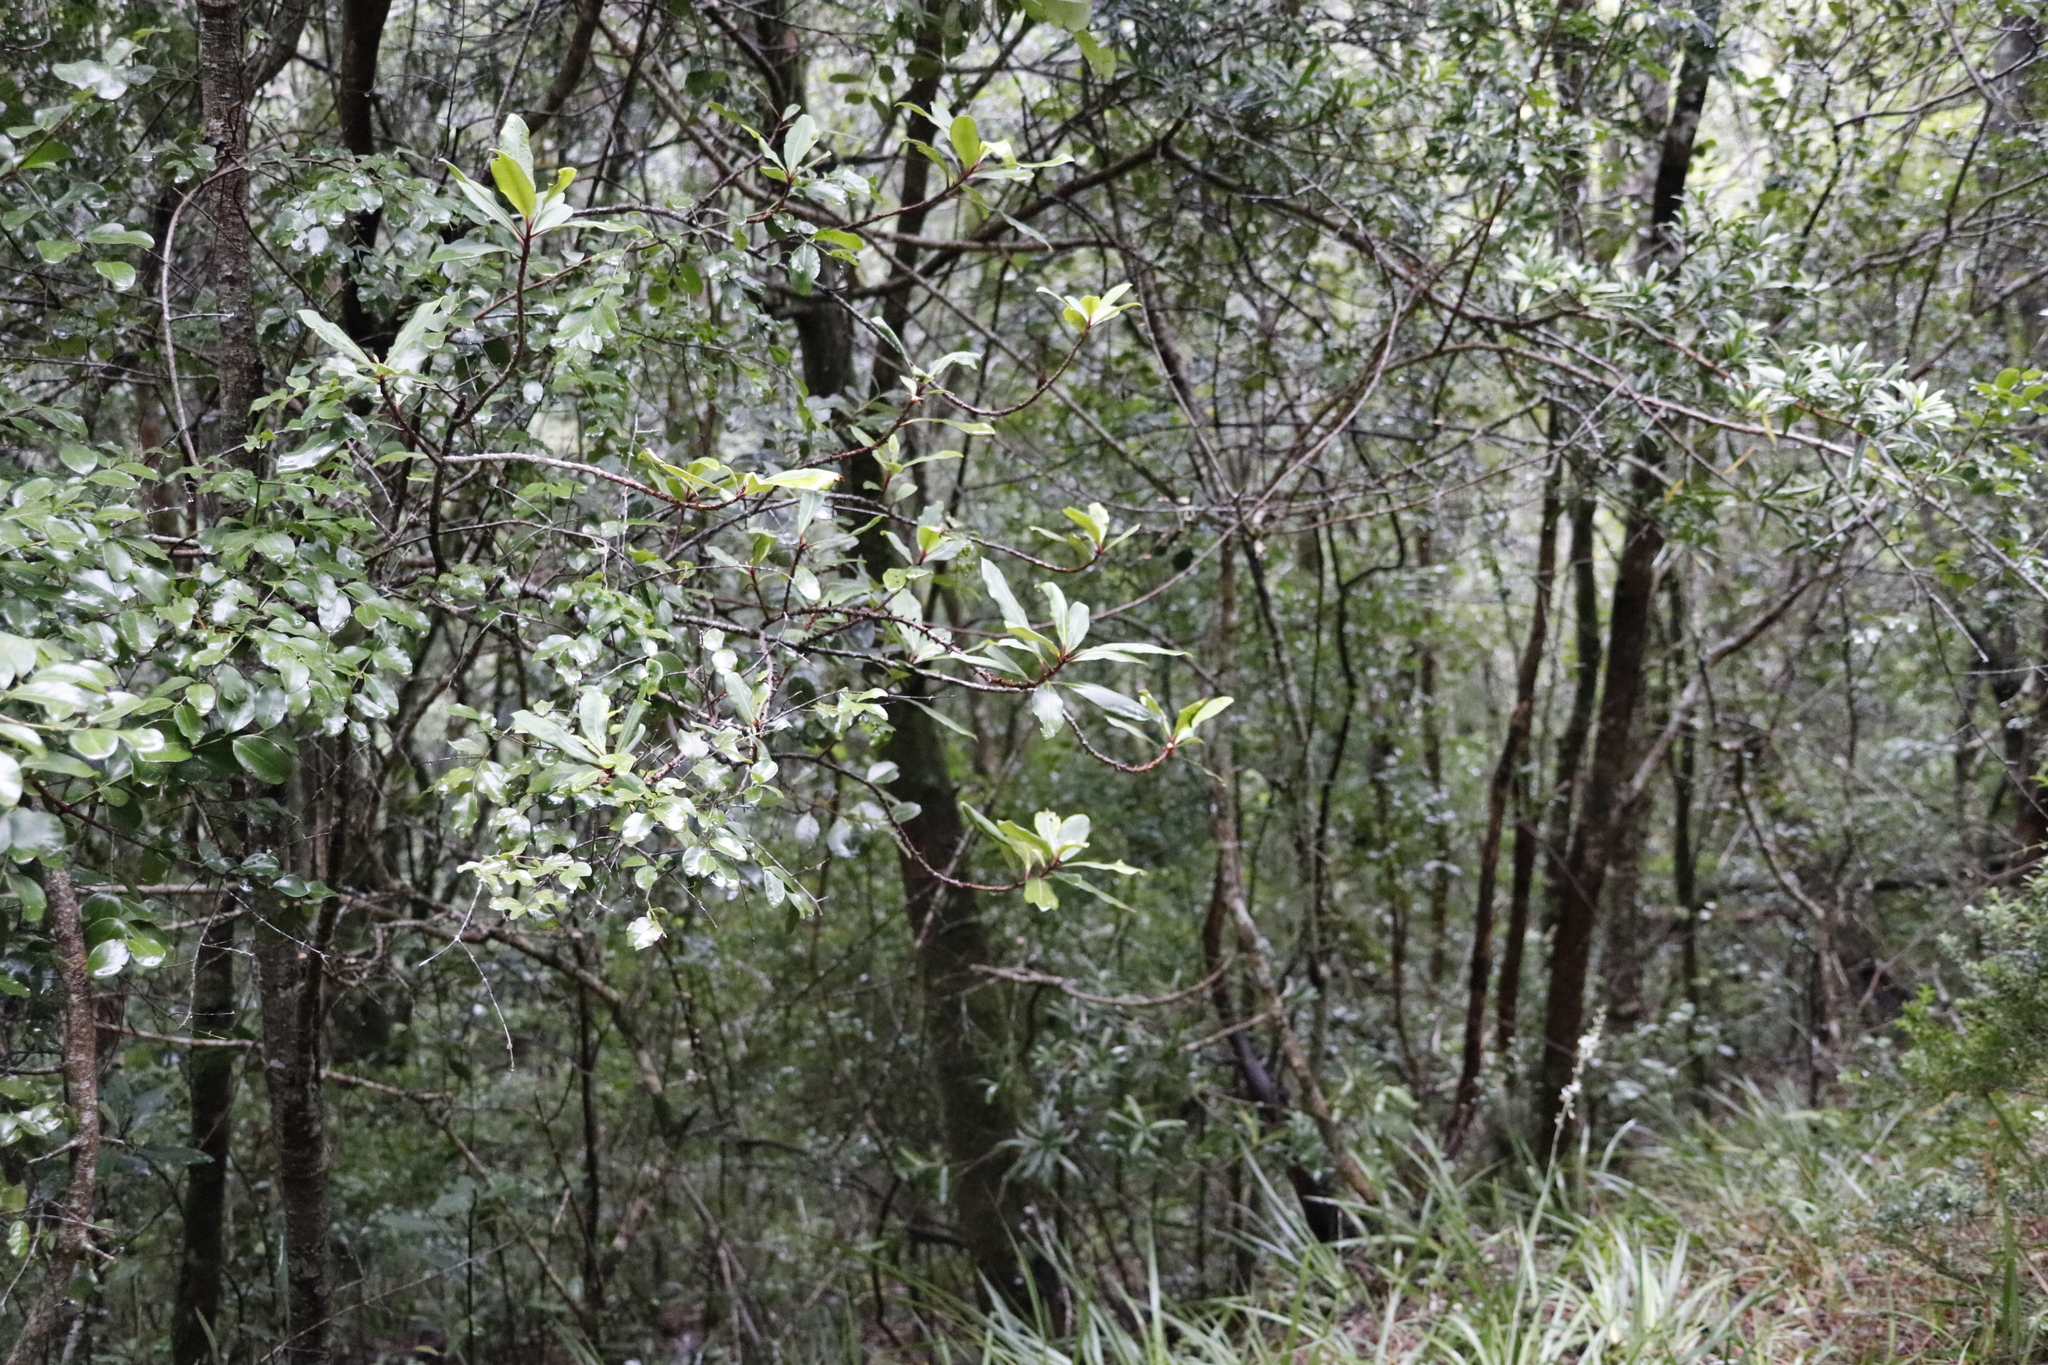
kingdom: Plantae
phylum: Tracheophyta
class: Magnoliopsida
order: Ericales
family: Primulaceae
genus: Myrsine
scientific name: Myrsine melanophloeos
